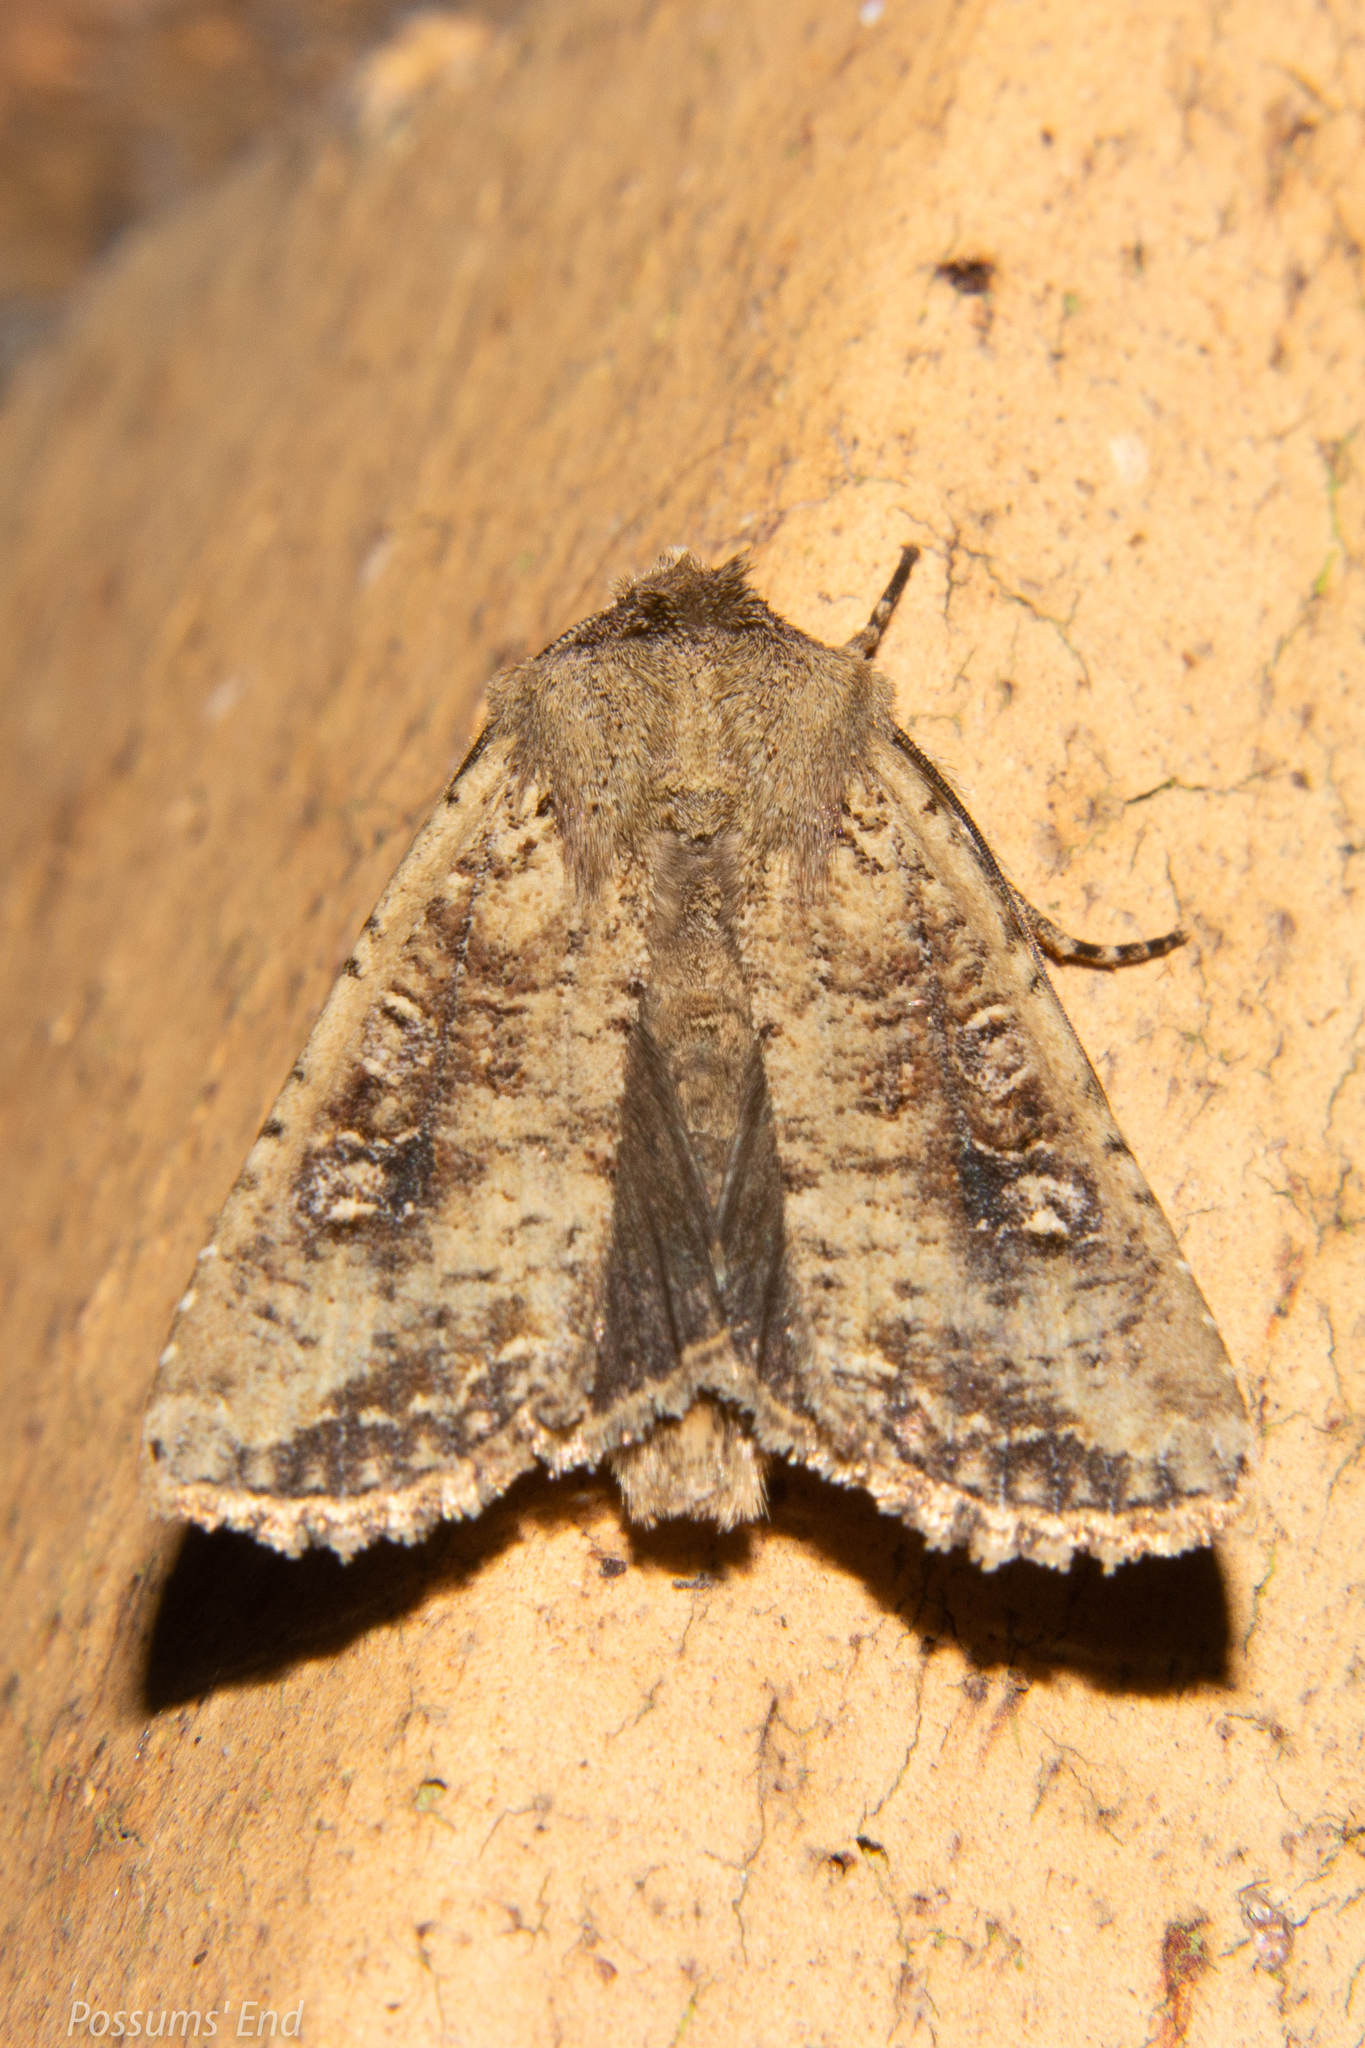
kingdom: Animalia
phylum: Arthropoda
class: Insecta
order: Lepidoptera
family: Noctuidae
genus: Ichneutica
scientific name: Ichneutica morosa
